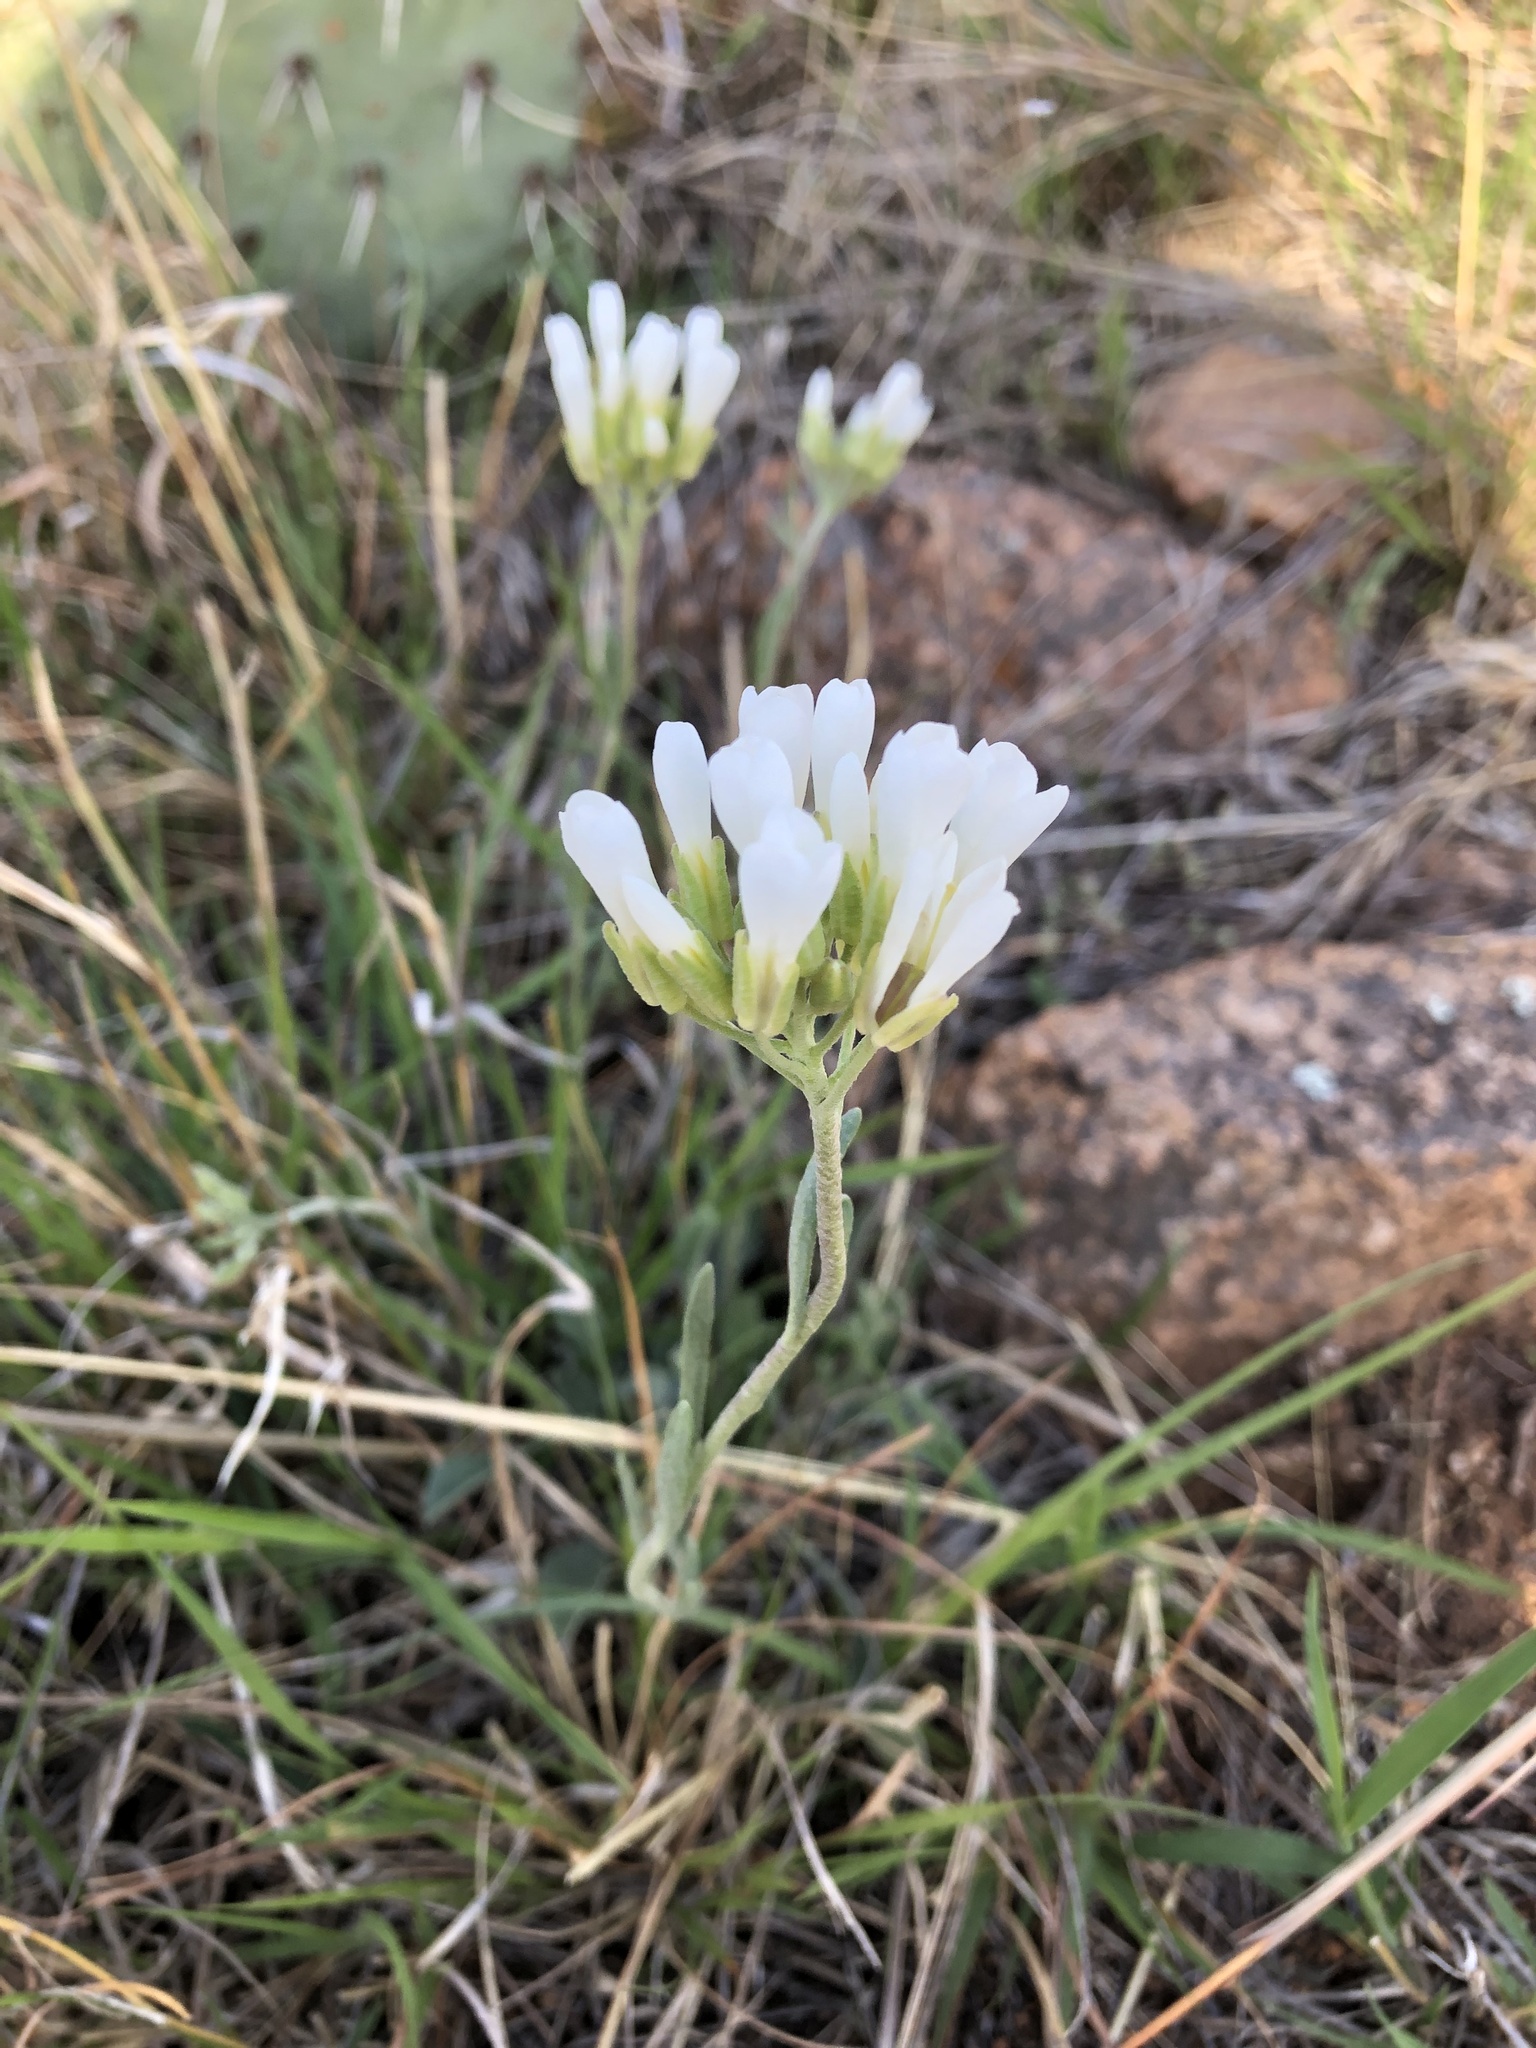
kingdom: Plantae
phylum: Tracheophyta
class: Magnoliopsida
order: Brassicales
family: Brassicaceae
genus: Physaria
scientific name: Physaria ovalifolia
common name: Round-leaf bladderpod
